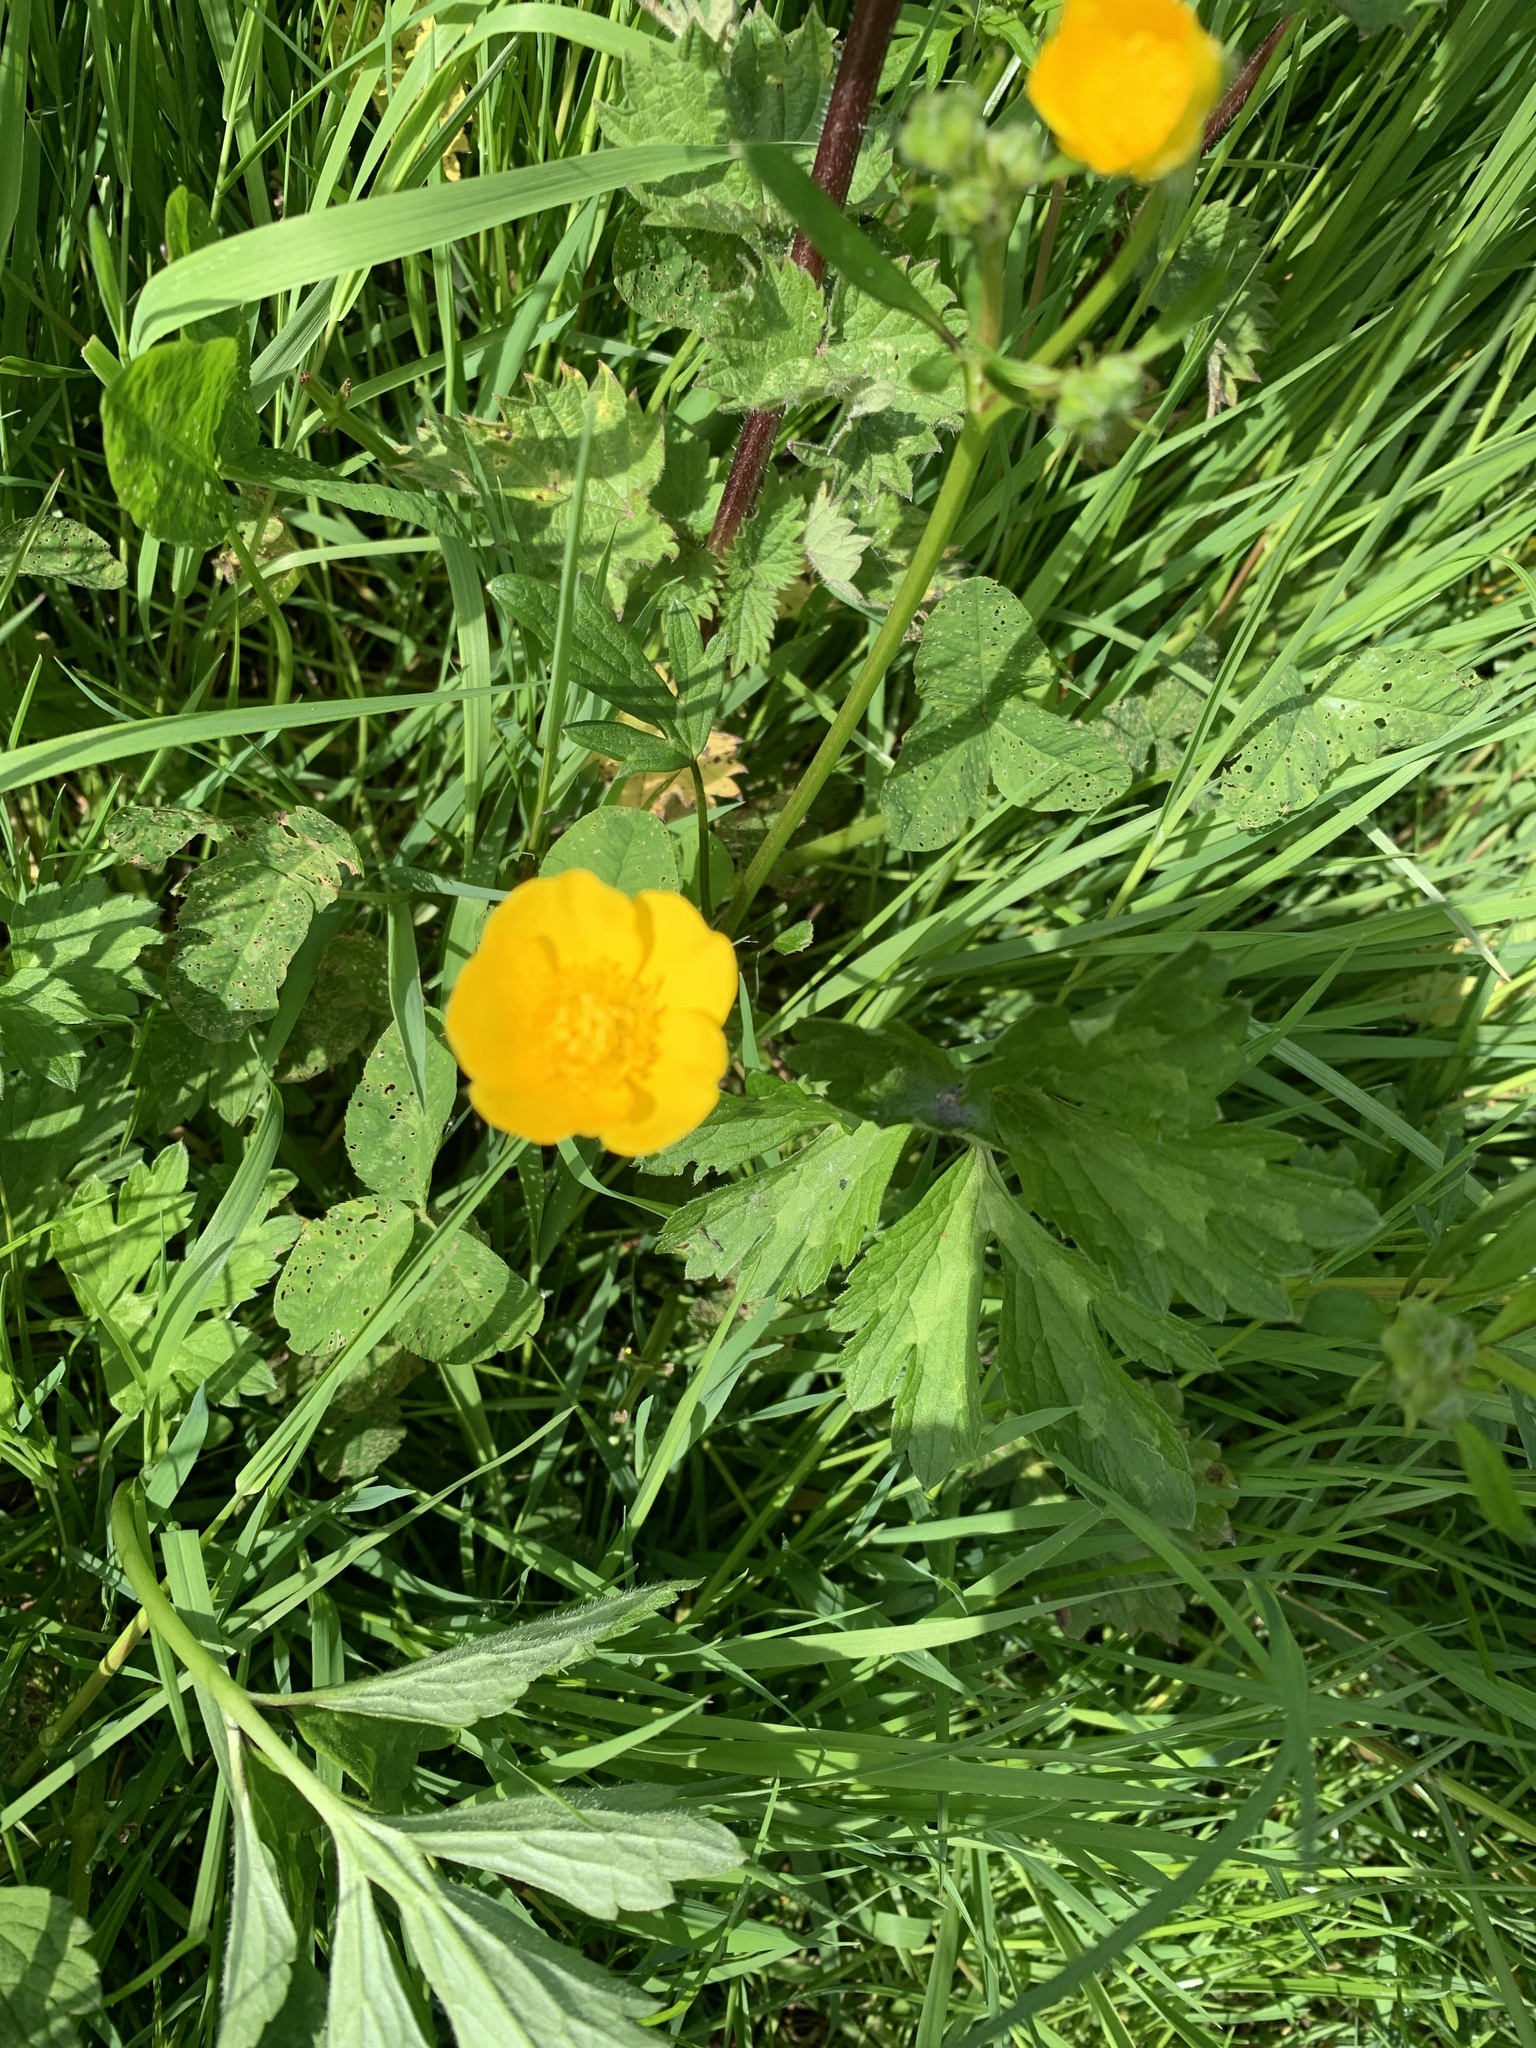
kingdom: Plantae
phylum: Tracheophyta
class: Magnoliopsida
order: Ranunculales
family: Ranunculaceae
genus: Ranunculus
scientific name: Ranunculus repens
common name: Creeping buttercup
